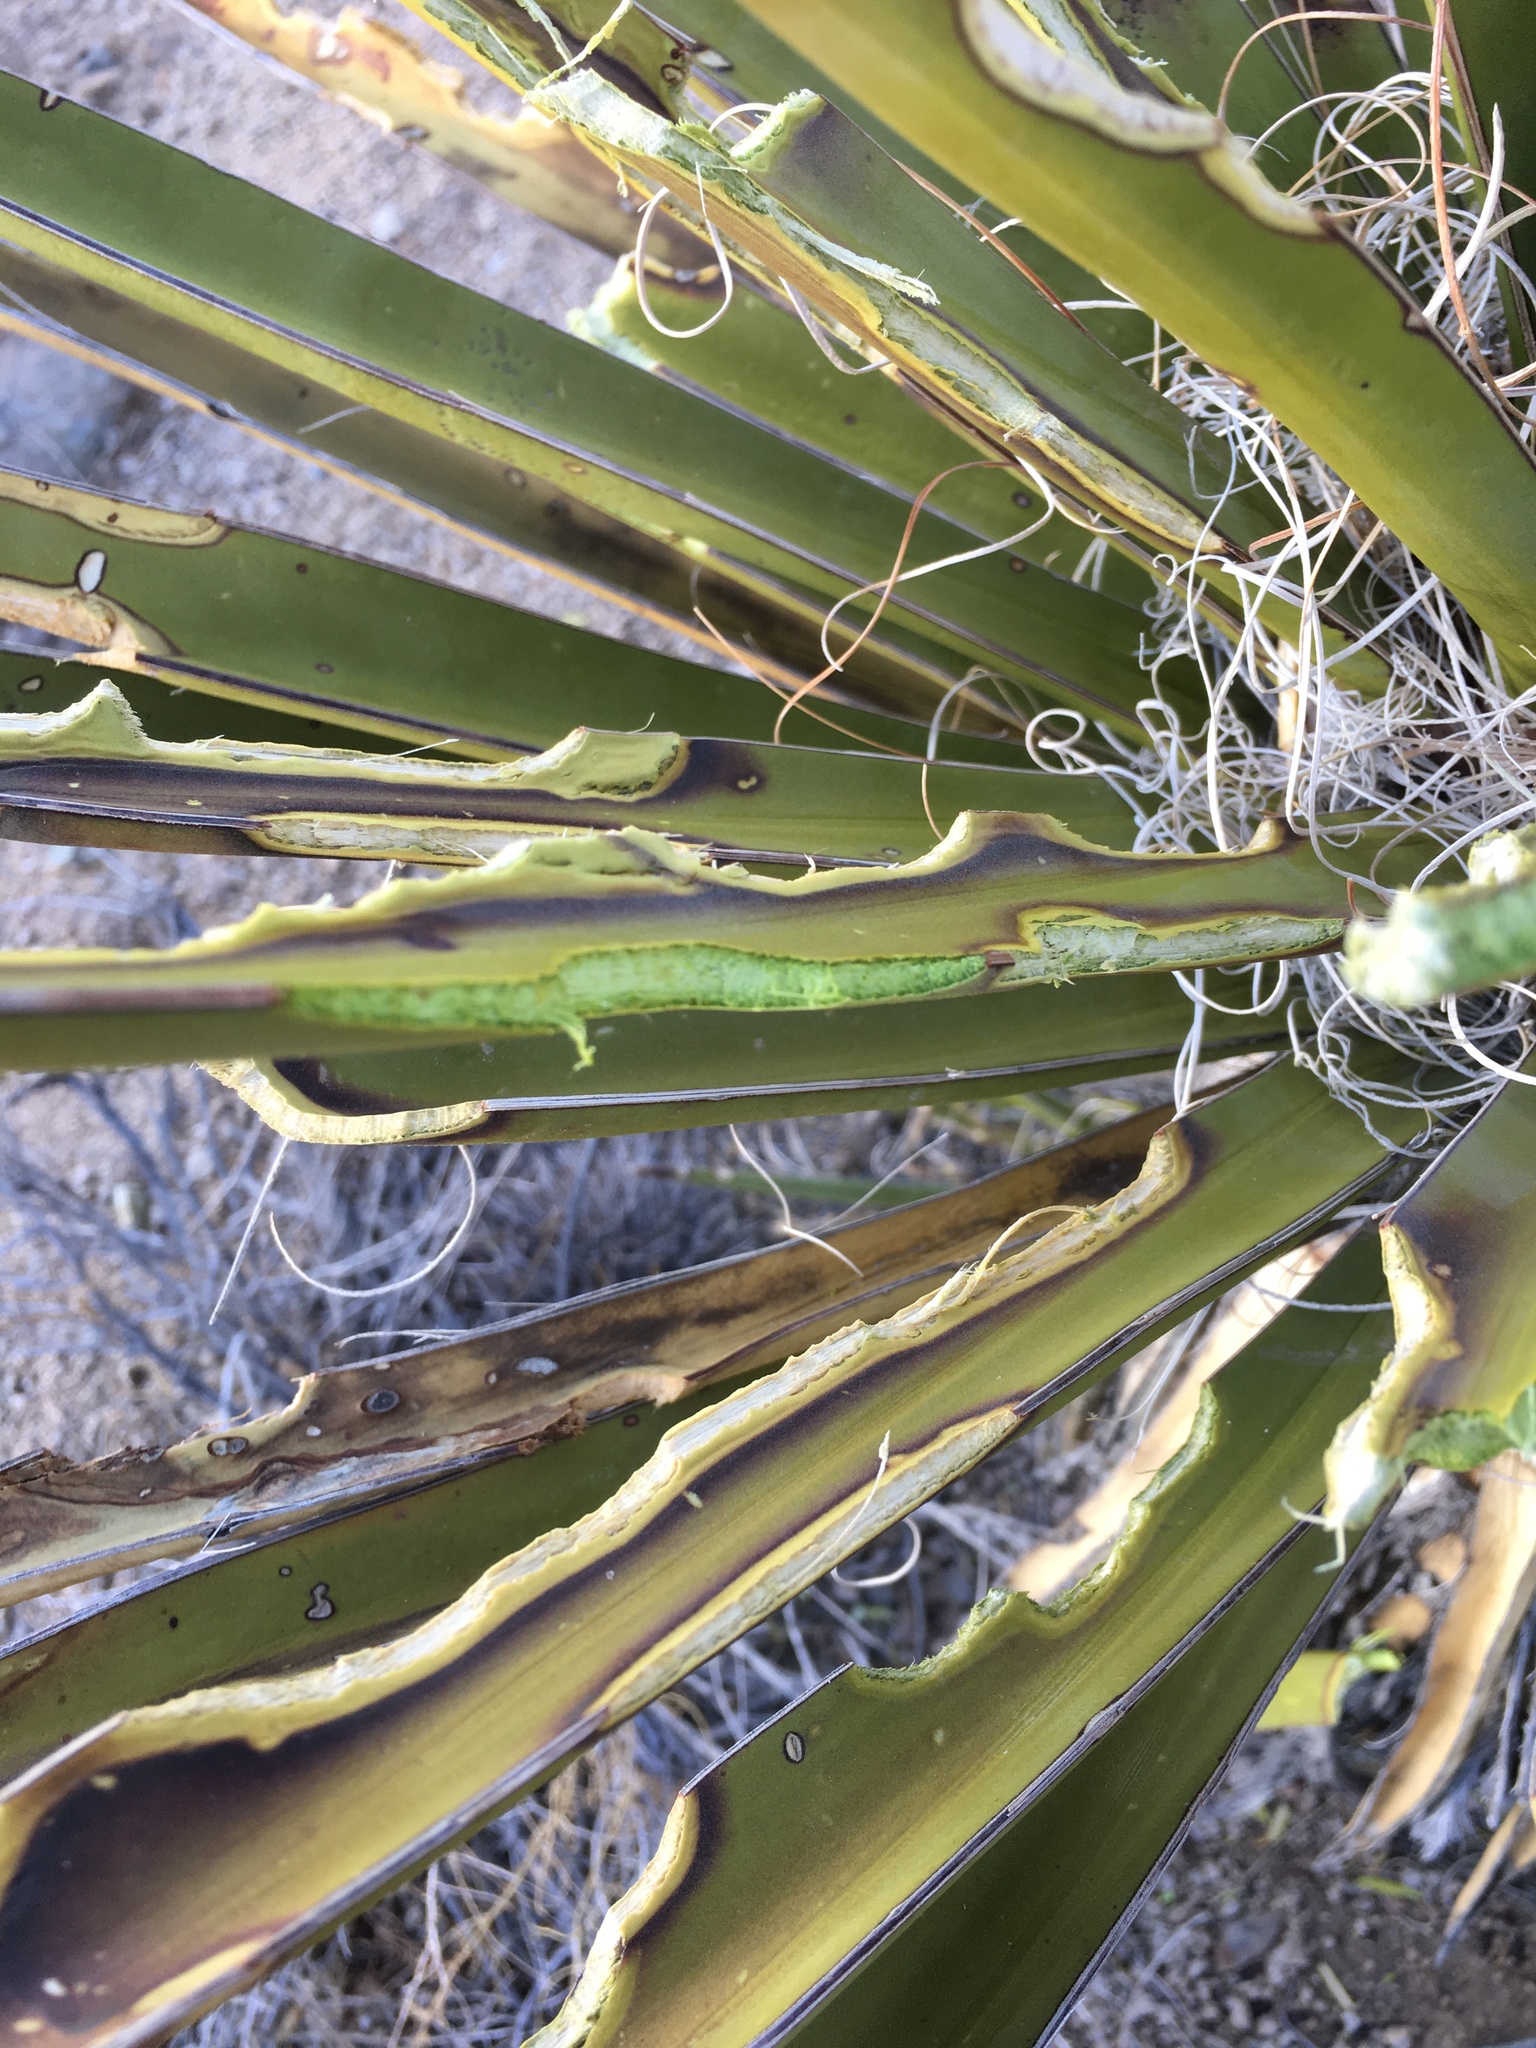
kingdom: Plantae
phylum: Tracheophyta
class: Liliopsida
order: Asparagales
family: Asparagaceae
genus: Yucca
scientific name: Yucca schidigera
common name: Mojave yucca
